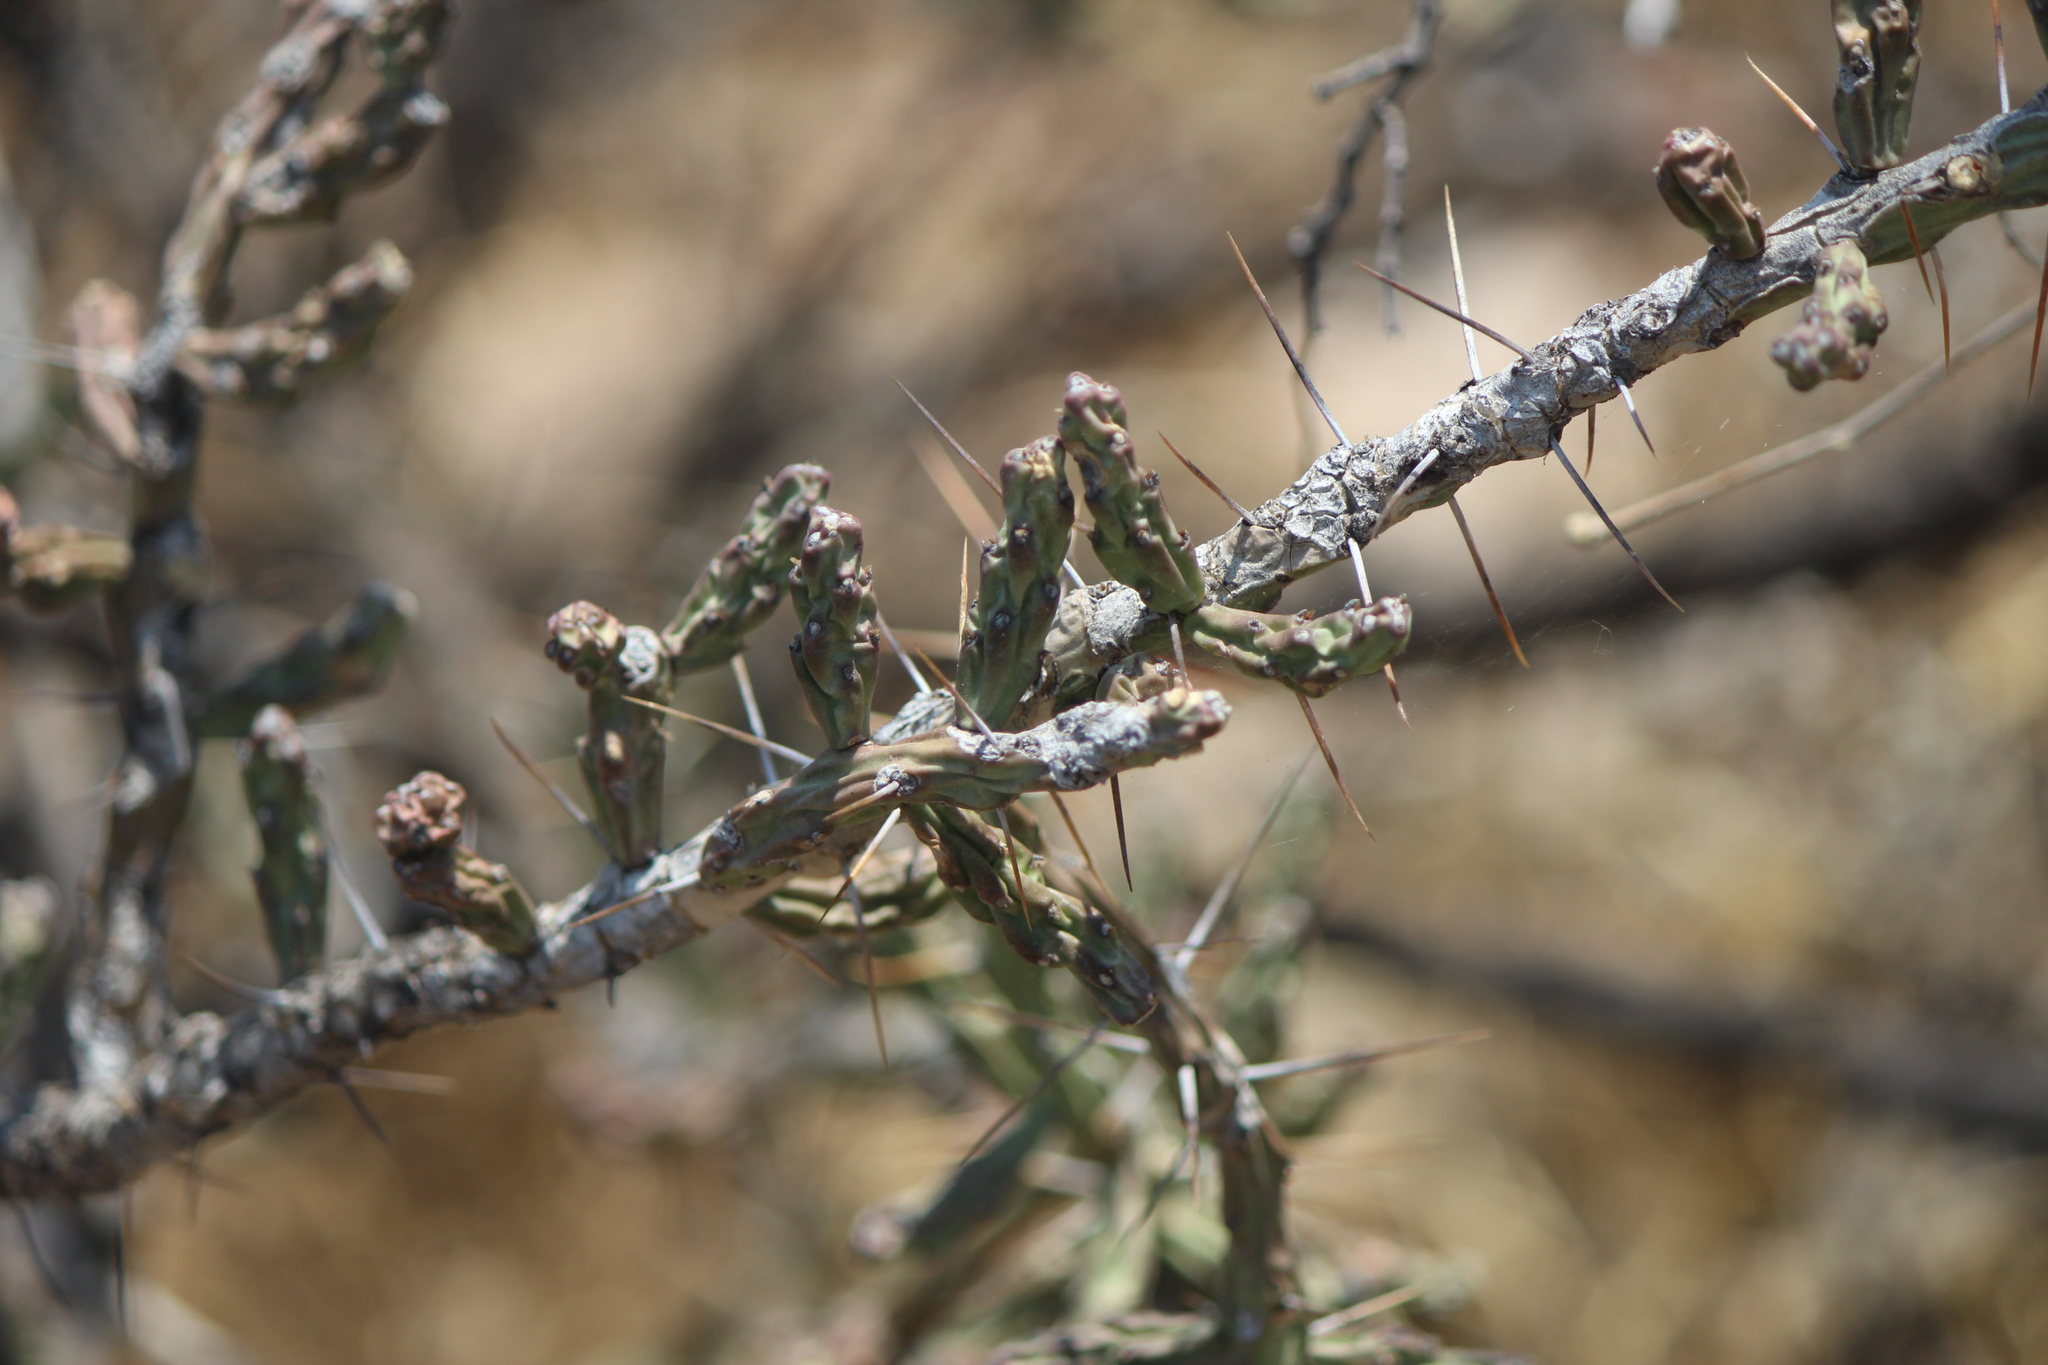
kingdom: Plantae
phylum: Tracheophyta
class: Magnoliopsida
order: Caryophyllales
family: Cactaceae
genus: Cylindropuntia
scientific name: Cylindropuntia kleiniae
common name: Klein's cholla
